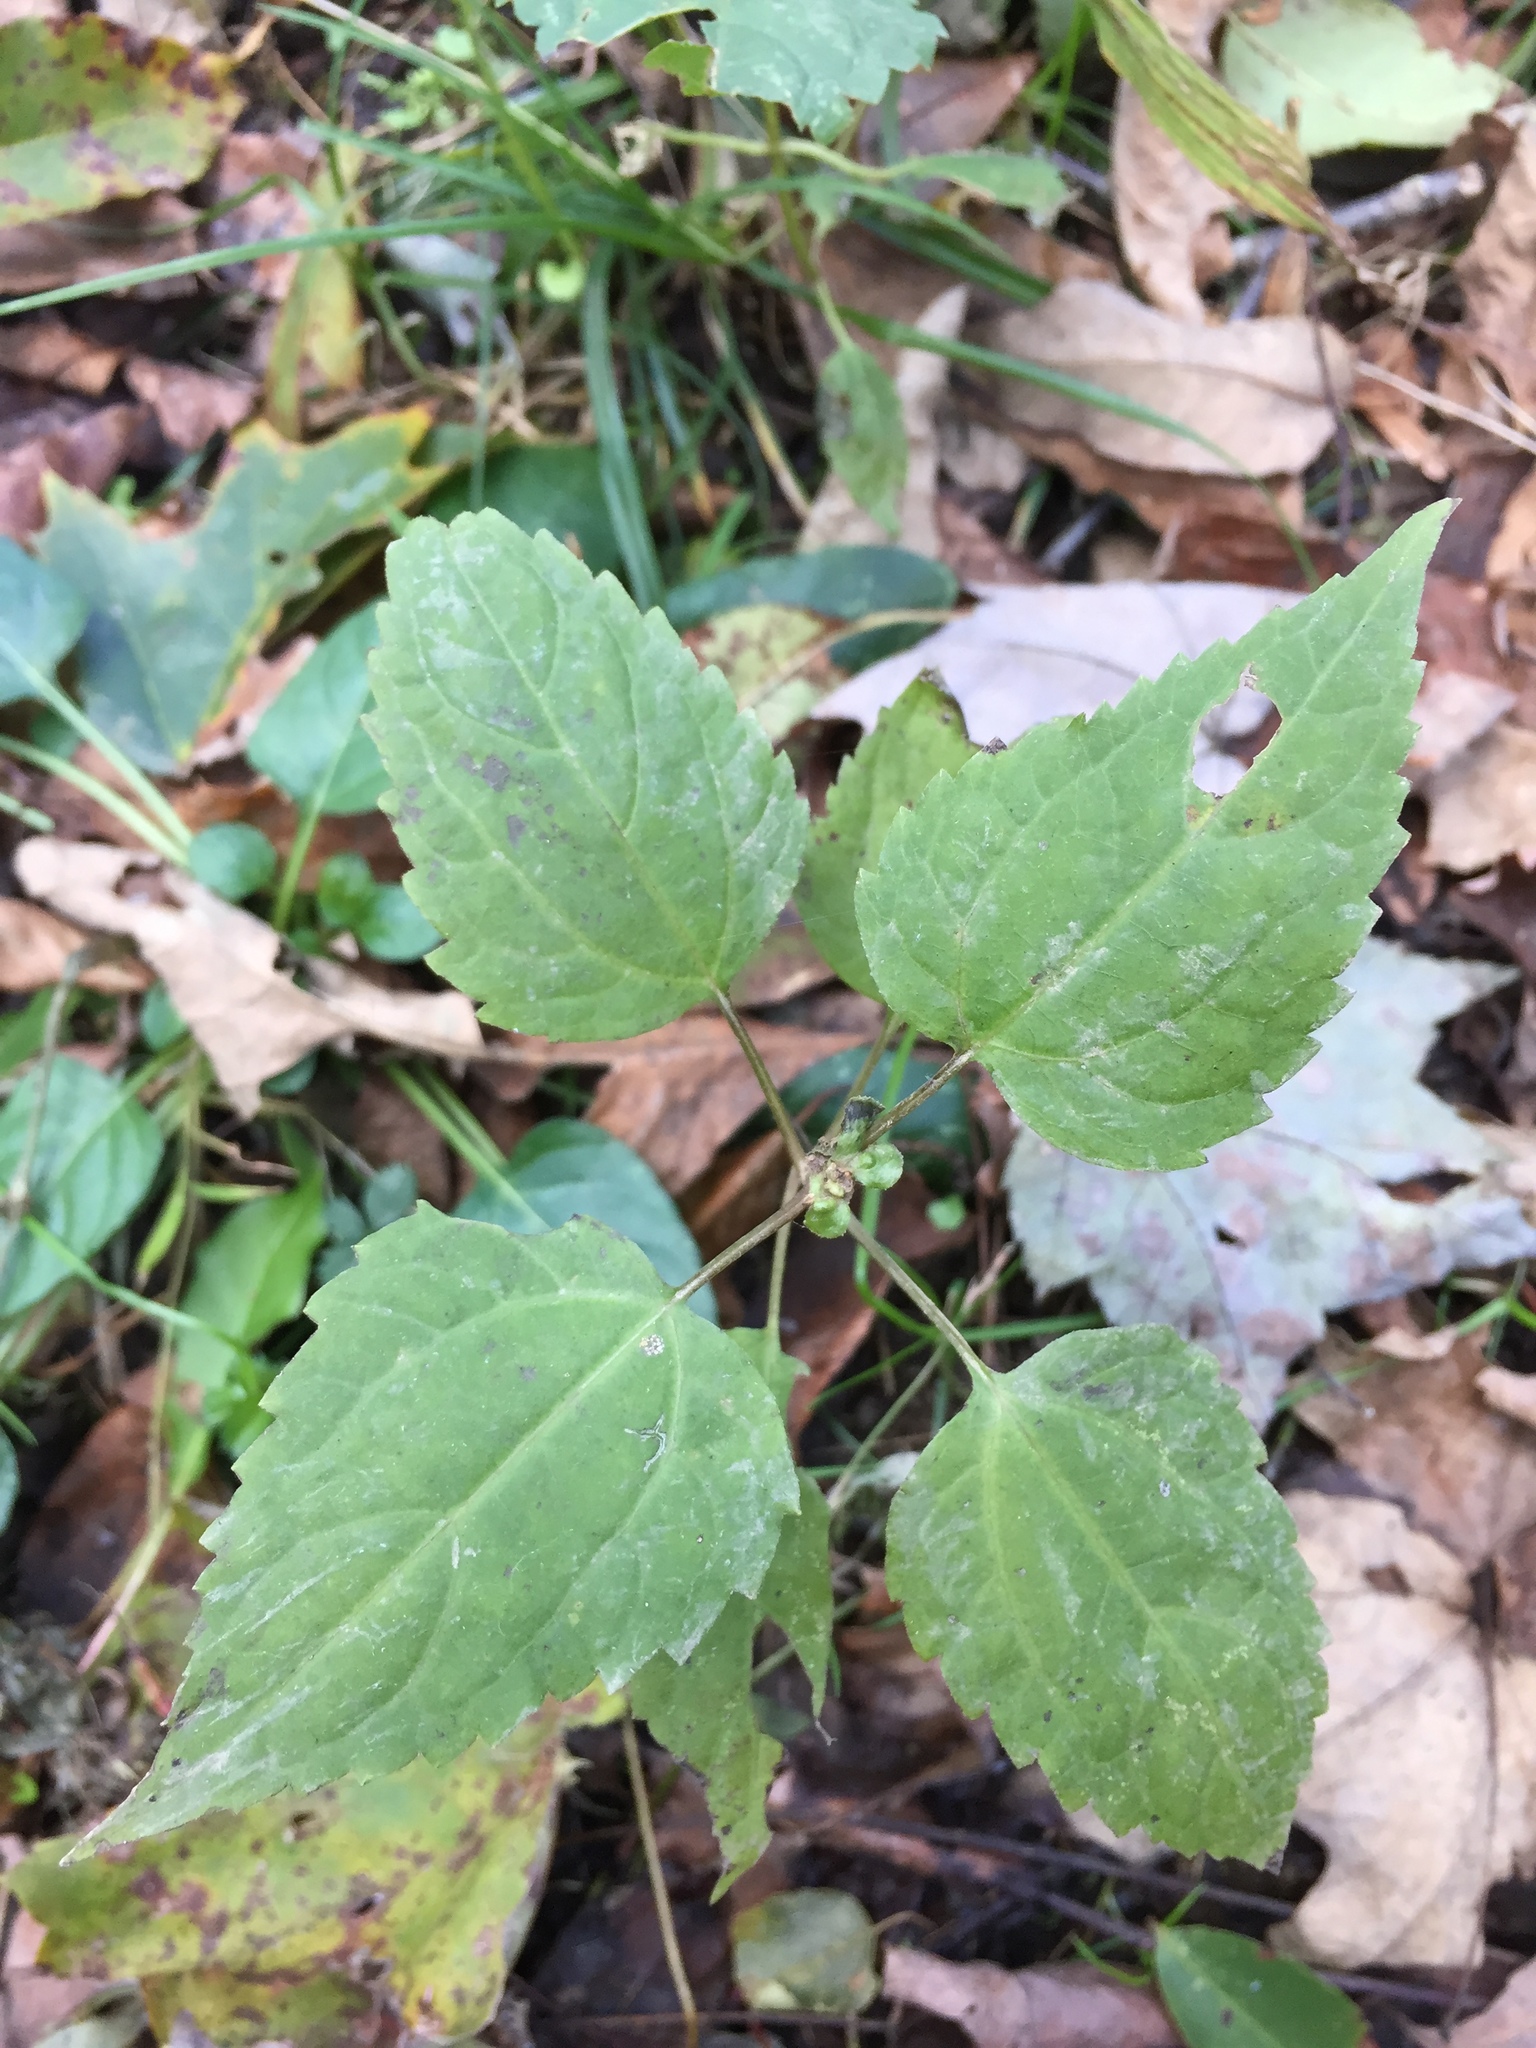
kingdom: Plantae
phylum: Tracheophyta
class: Magnoliopsida
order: Asterales
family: Asteraceae
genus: Ageratina
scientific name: Ageratina altissima
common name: White snakeroot
